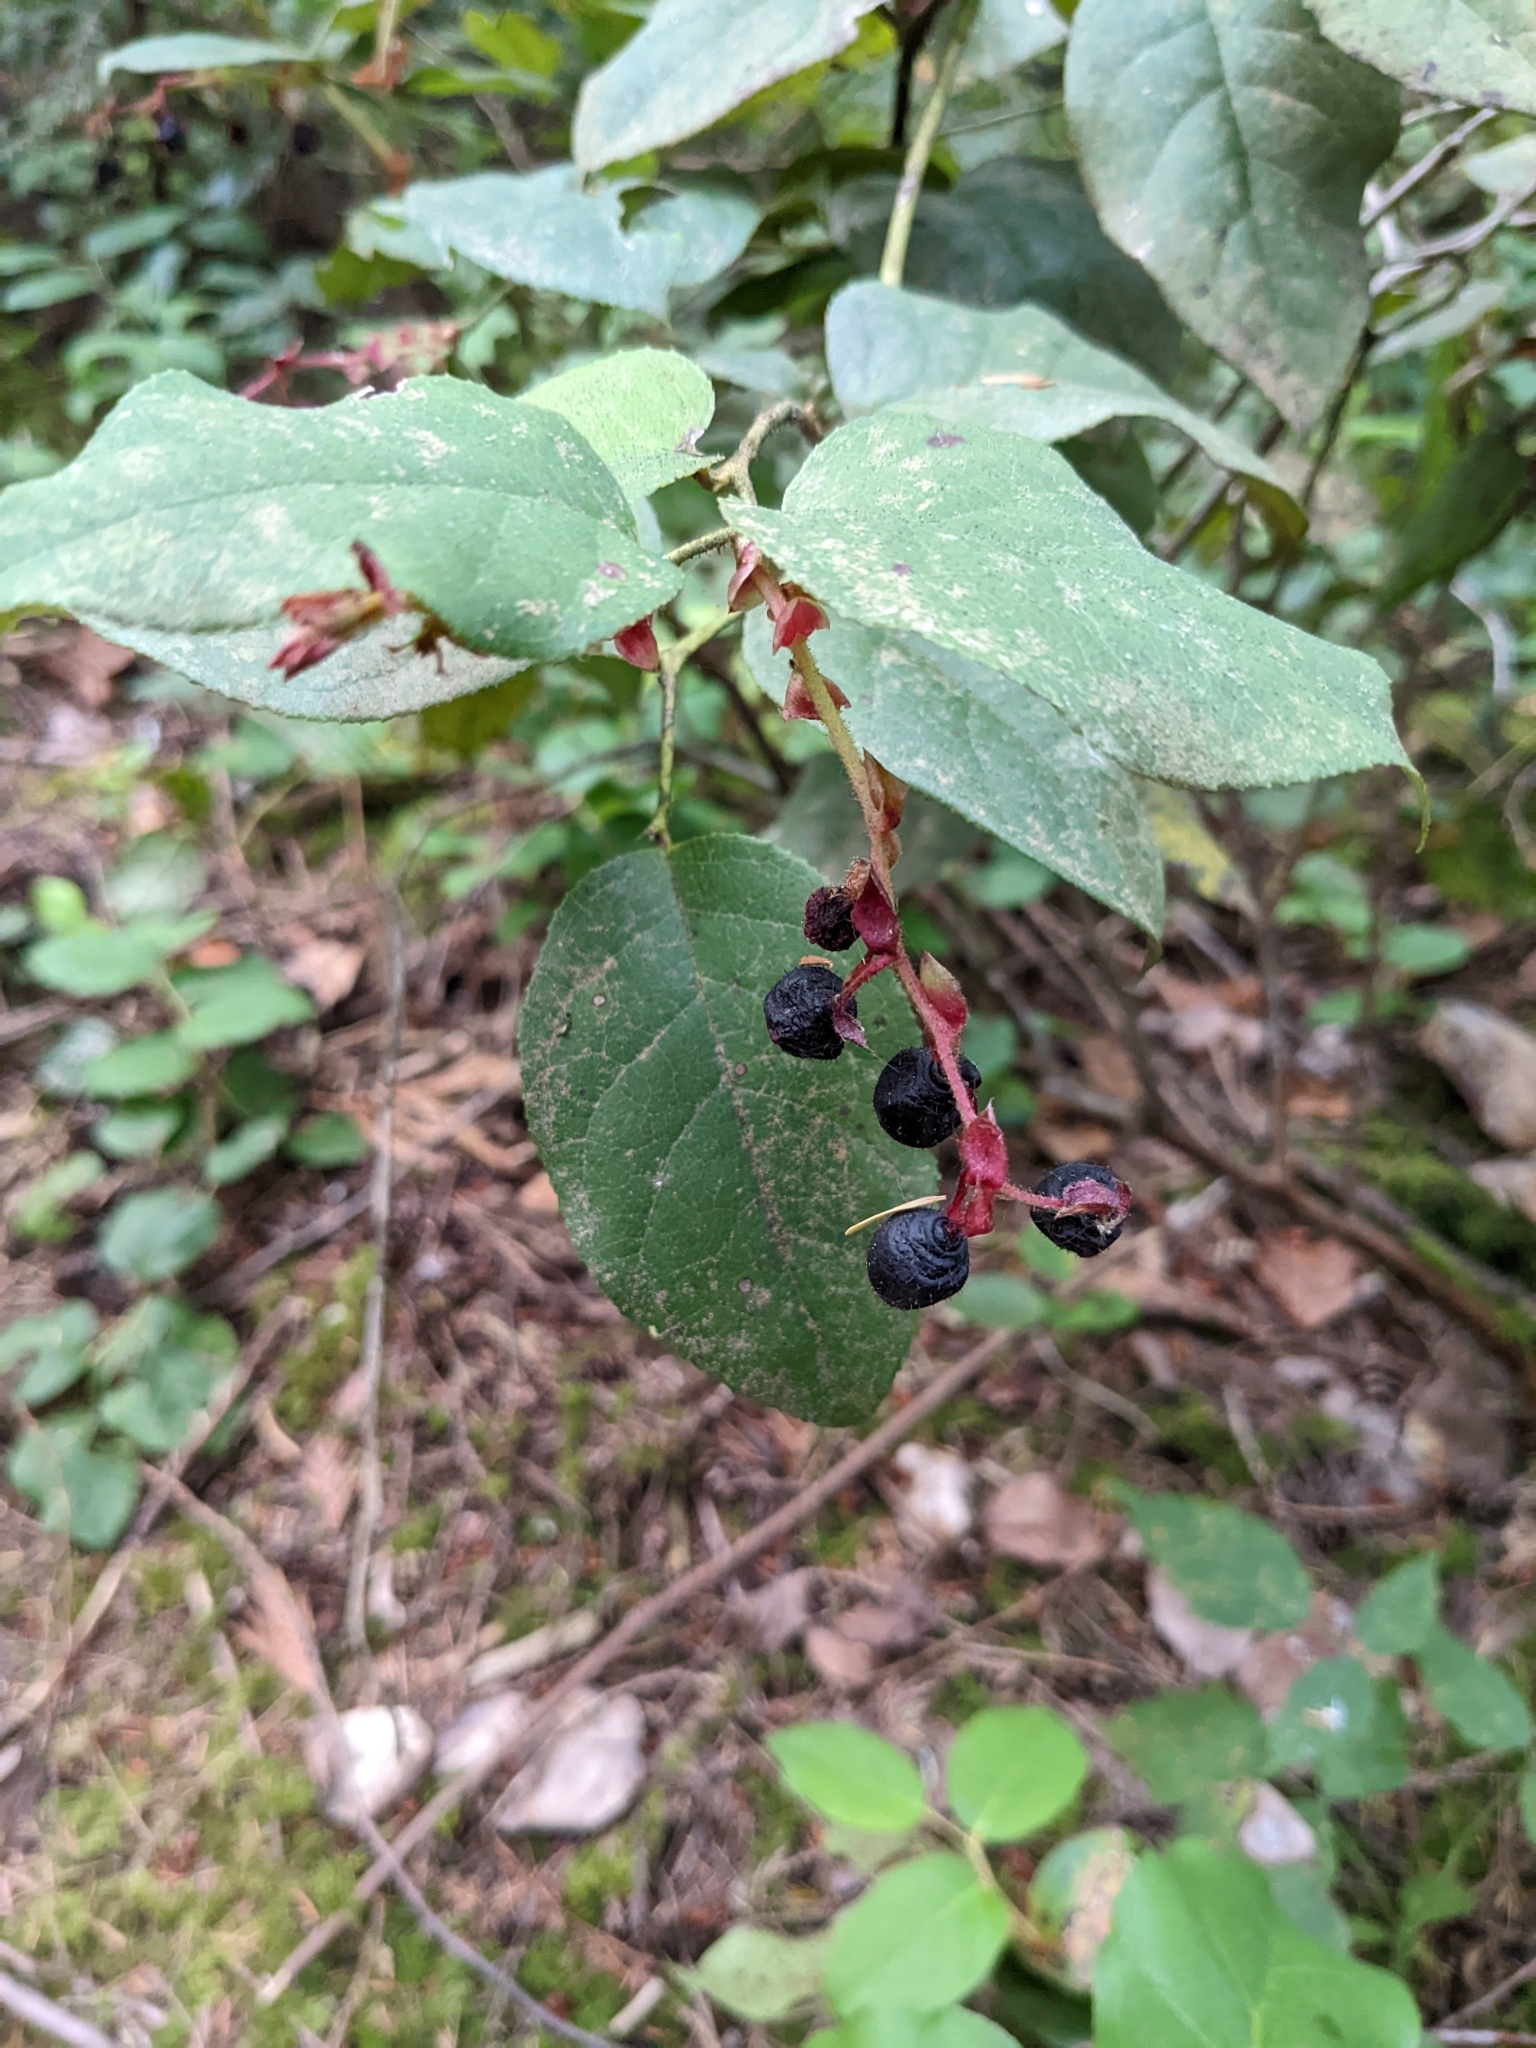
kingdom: Plantae
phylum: Tracheophyta
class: Magnoliopsida
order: Ericales
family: Ericaceae
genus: Gaultheria
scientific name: Gaultheria shallon
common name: Shallon
